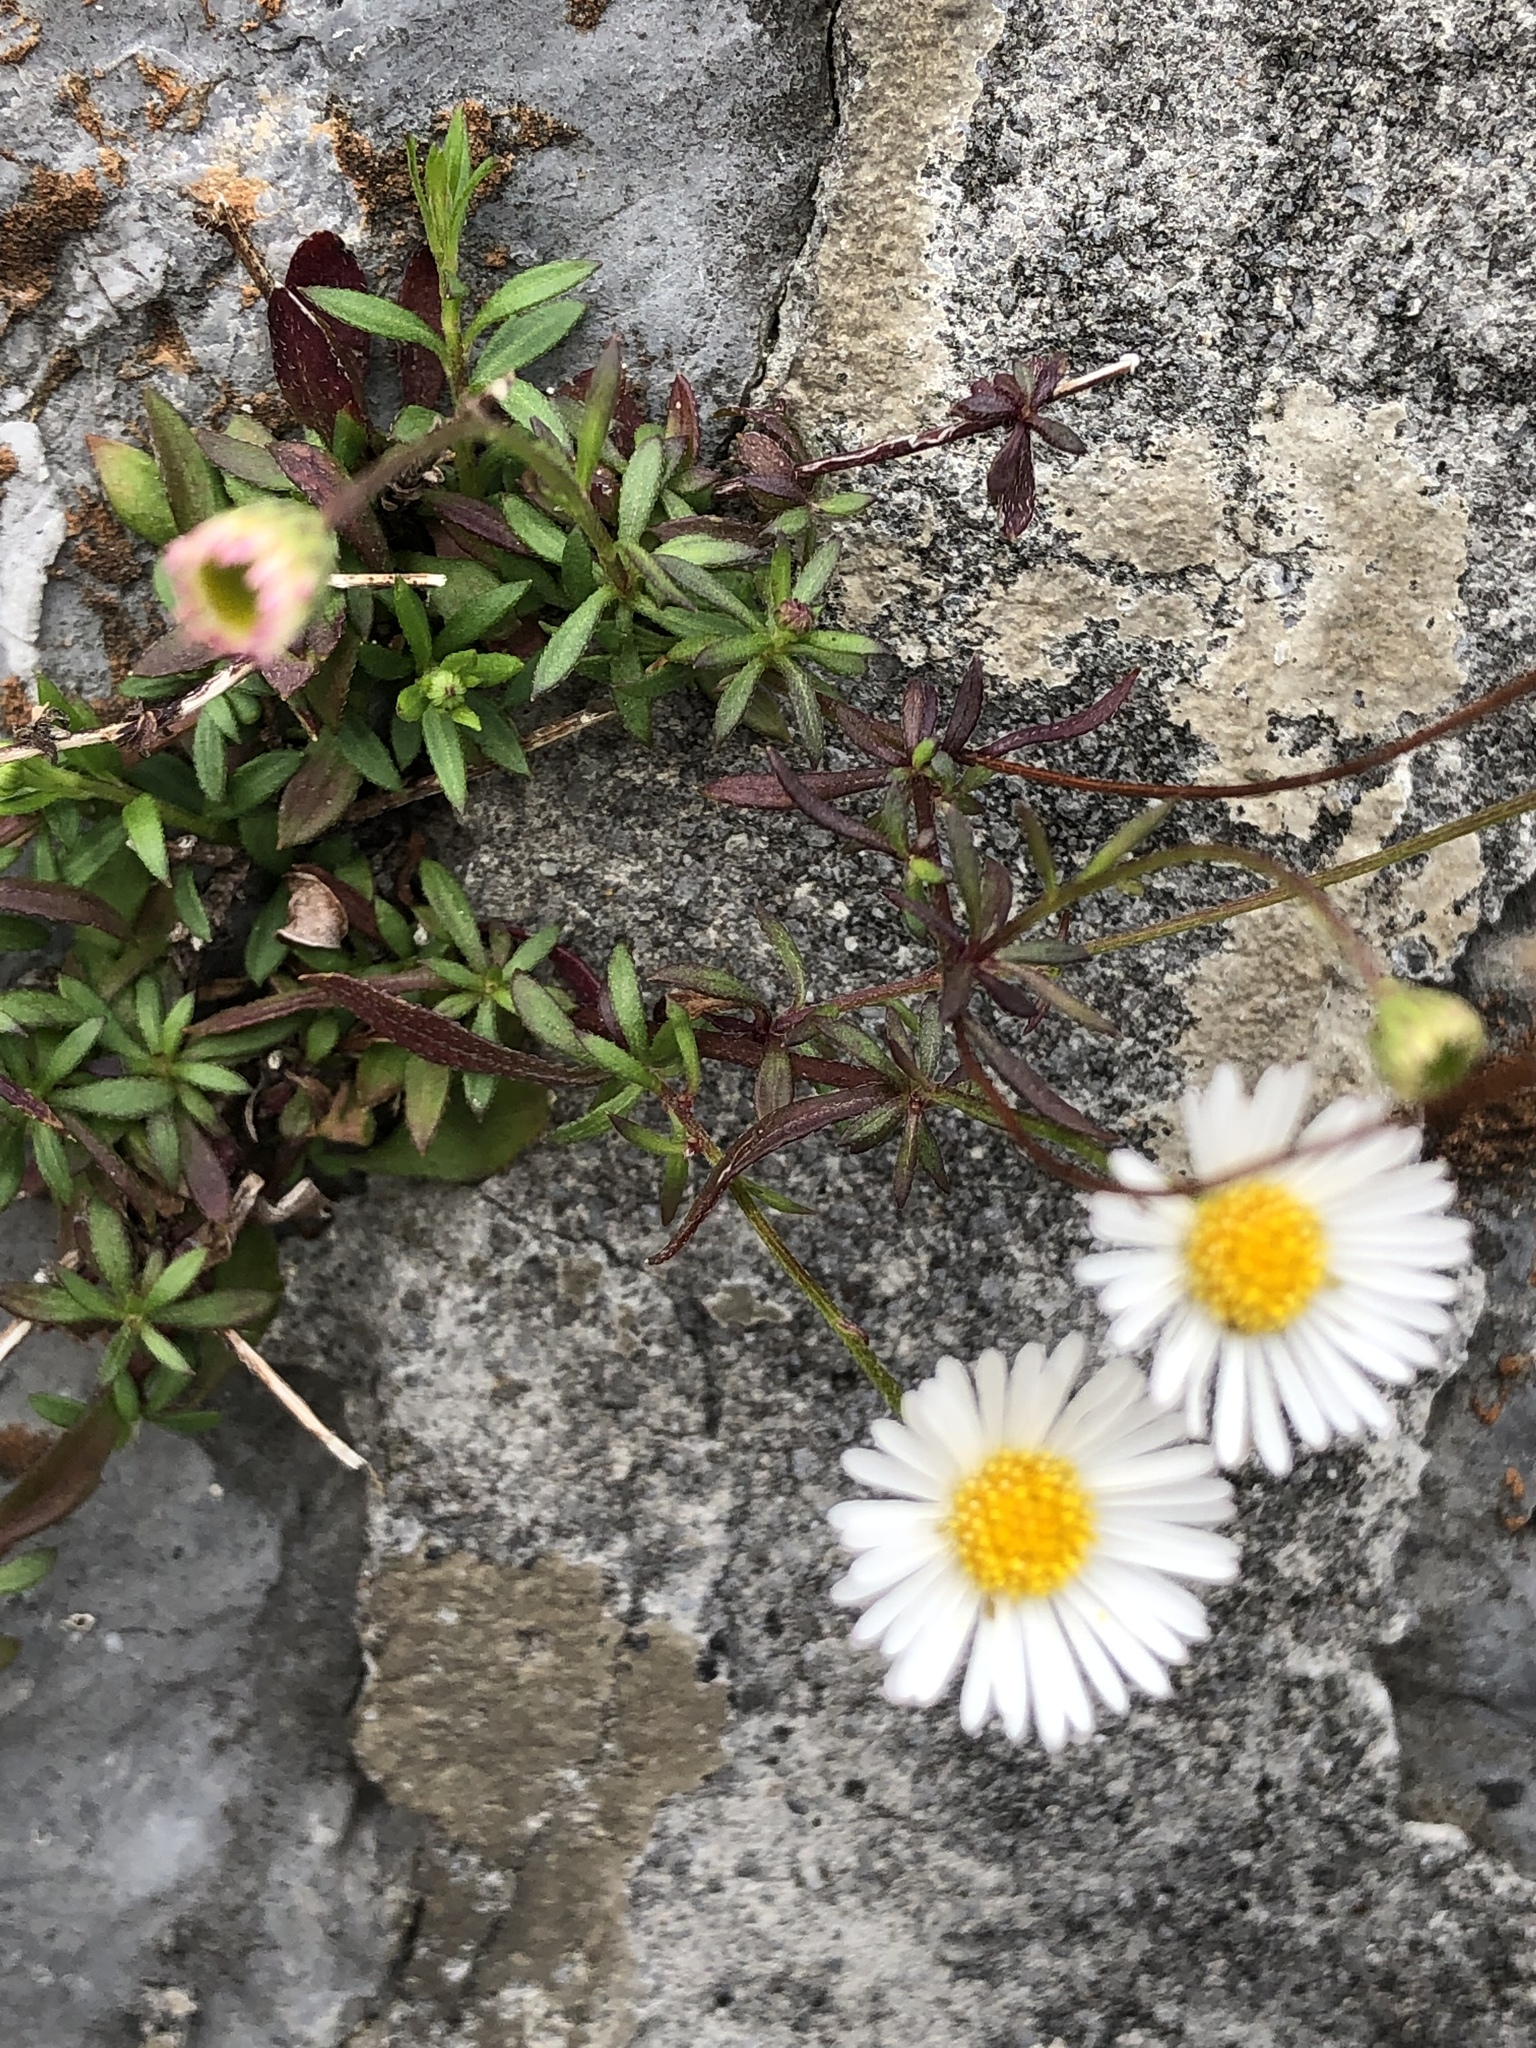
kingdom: Plantae
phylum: Tracheophyta
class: Magnoliopsida
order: Asterales
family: Asteraceae
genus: Erigeron
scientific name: Erigeron karvinskianus
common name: Mexican fleabane
